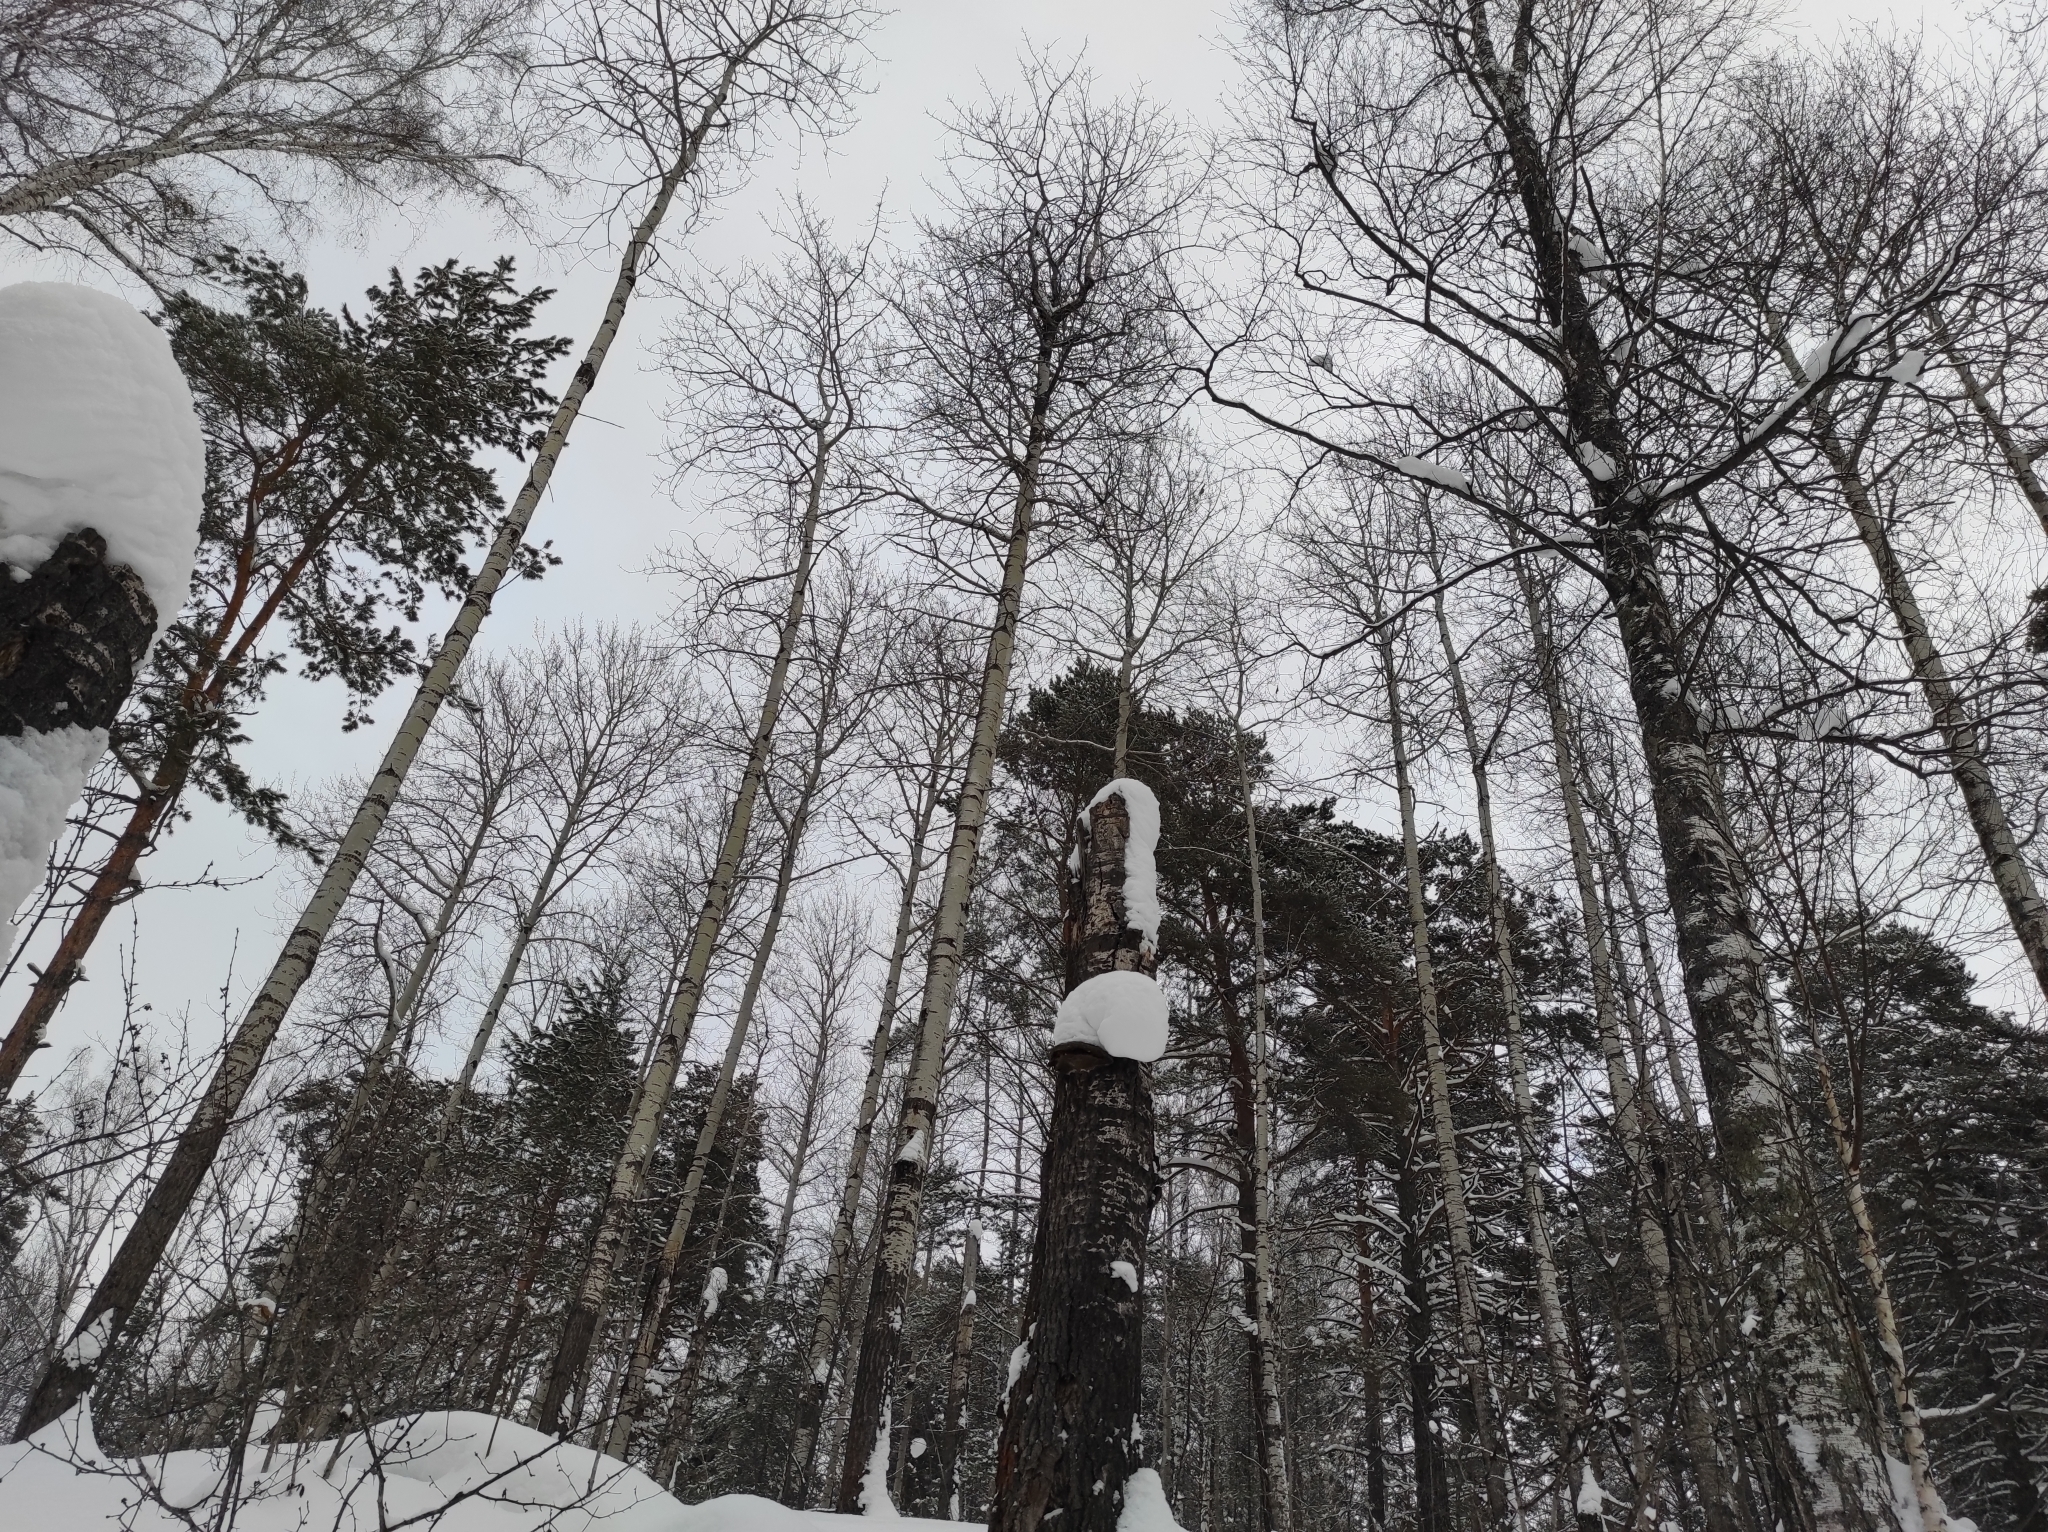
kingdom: Plantae
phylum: Tracheophyta
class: Magnoliopsida
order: Malpighiales
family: Salicaceae
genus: Populus
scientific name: Populus tremula
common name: European aspen
